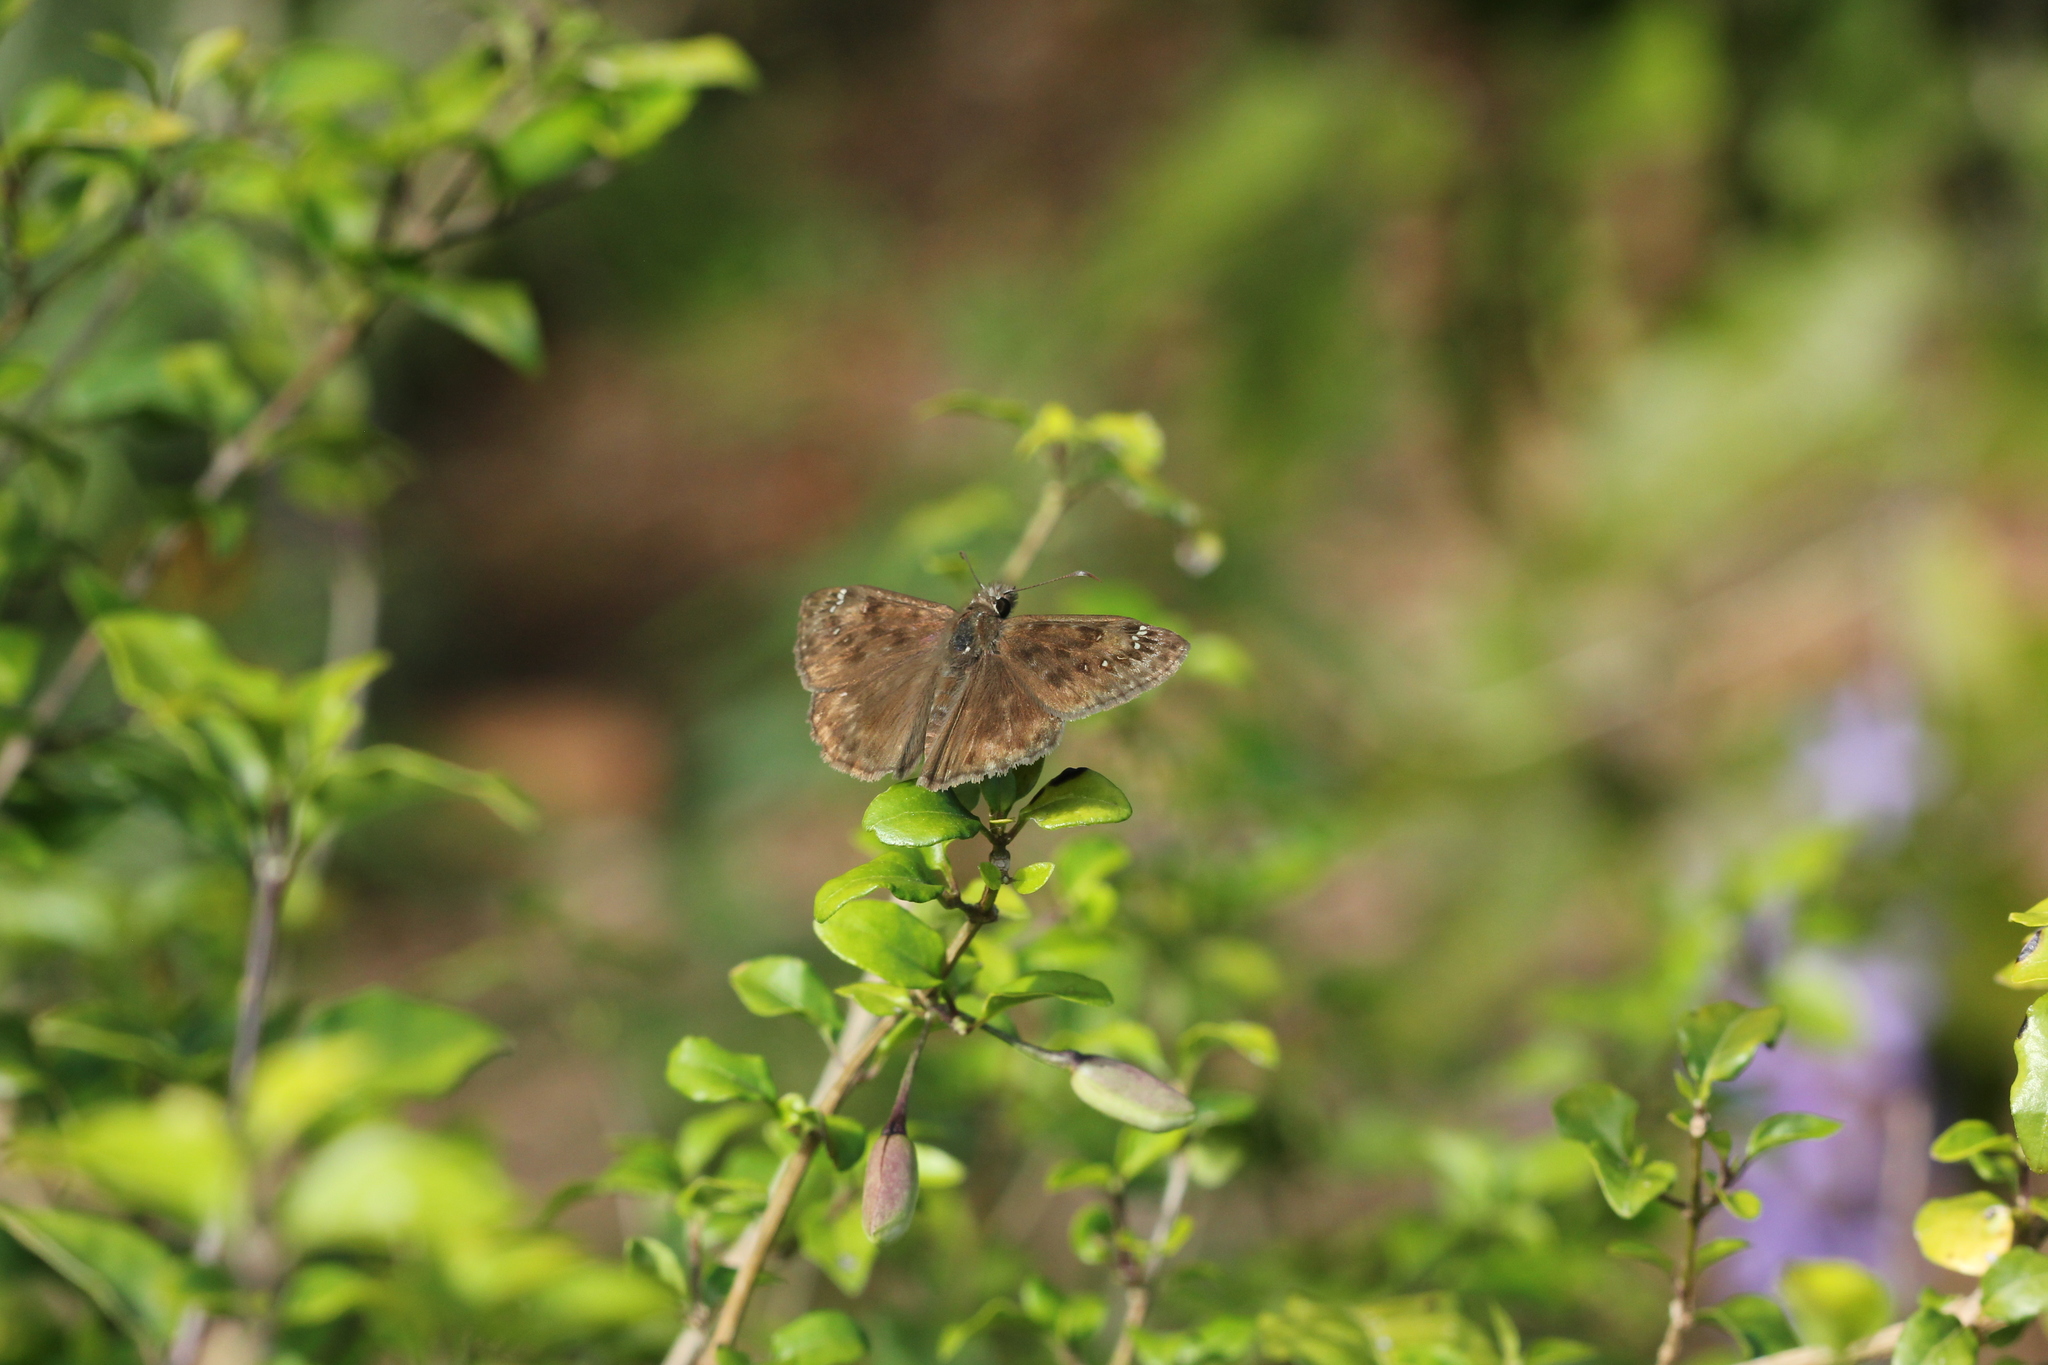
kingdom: Animalia
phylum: Arthropoda
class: Insecta
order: Lepidoptera
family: Hesperiidae
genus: Erynnis
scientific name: Erynnis horatius
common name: Horace's duskywing
